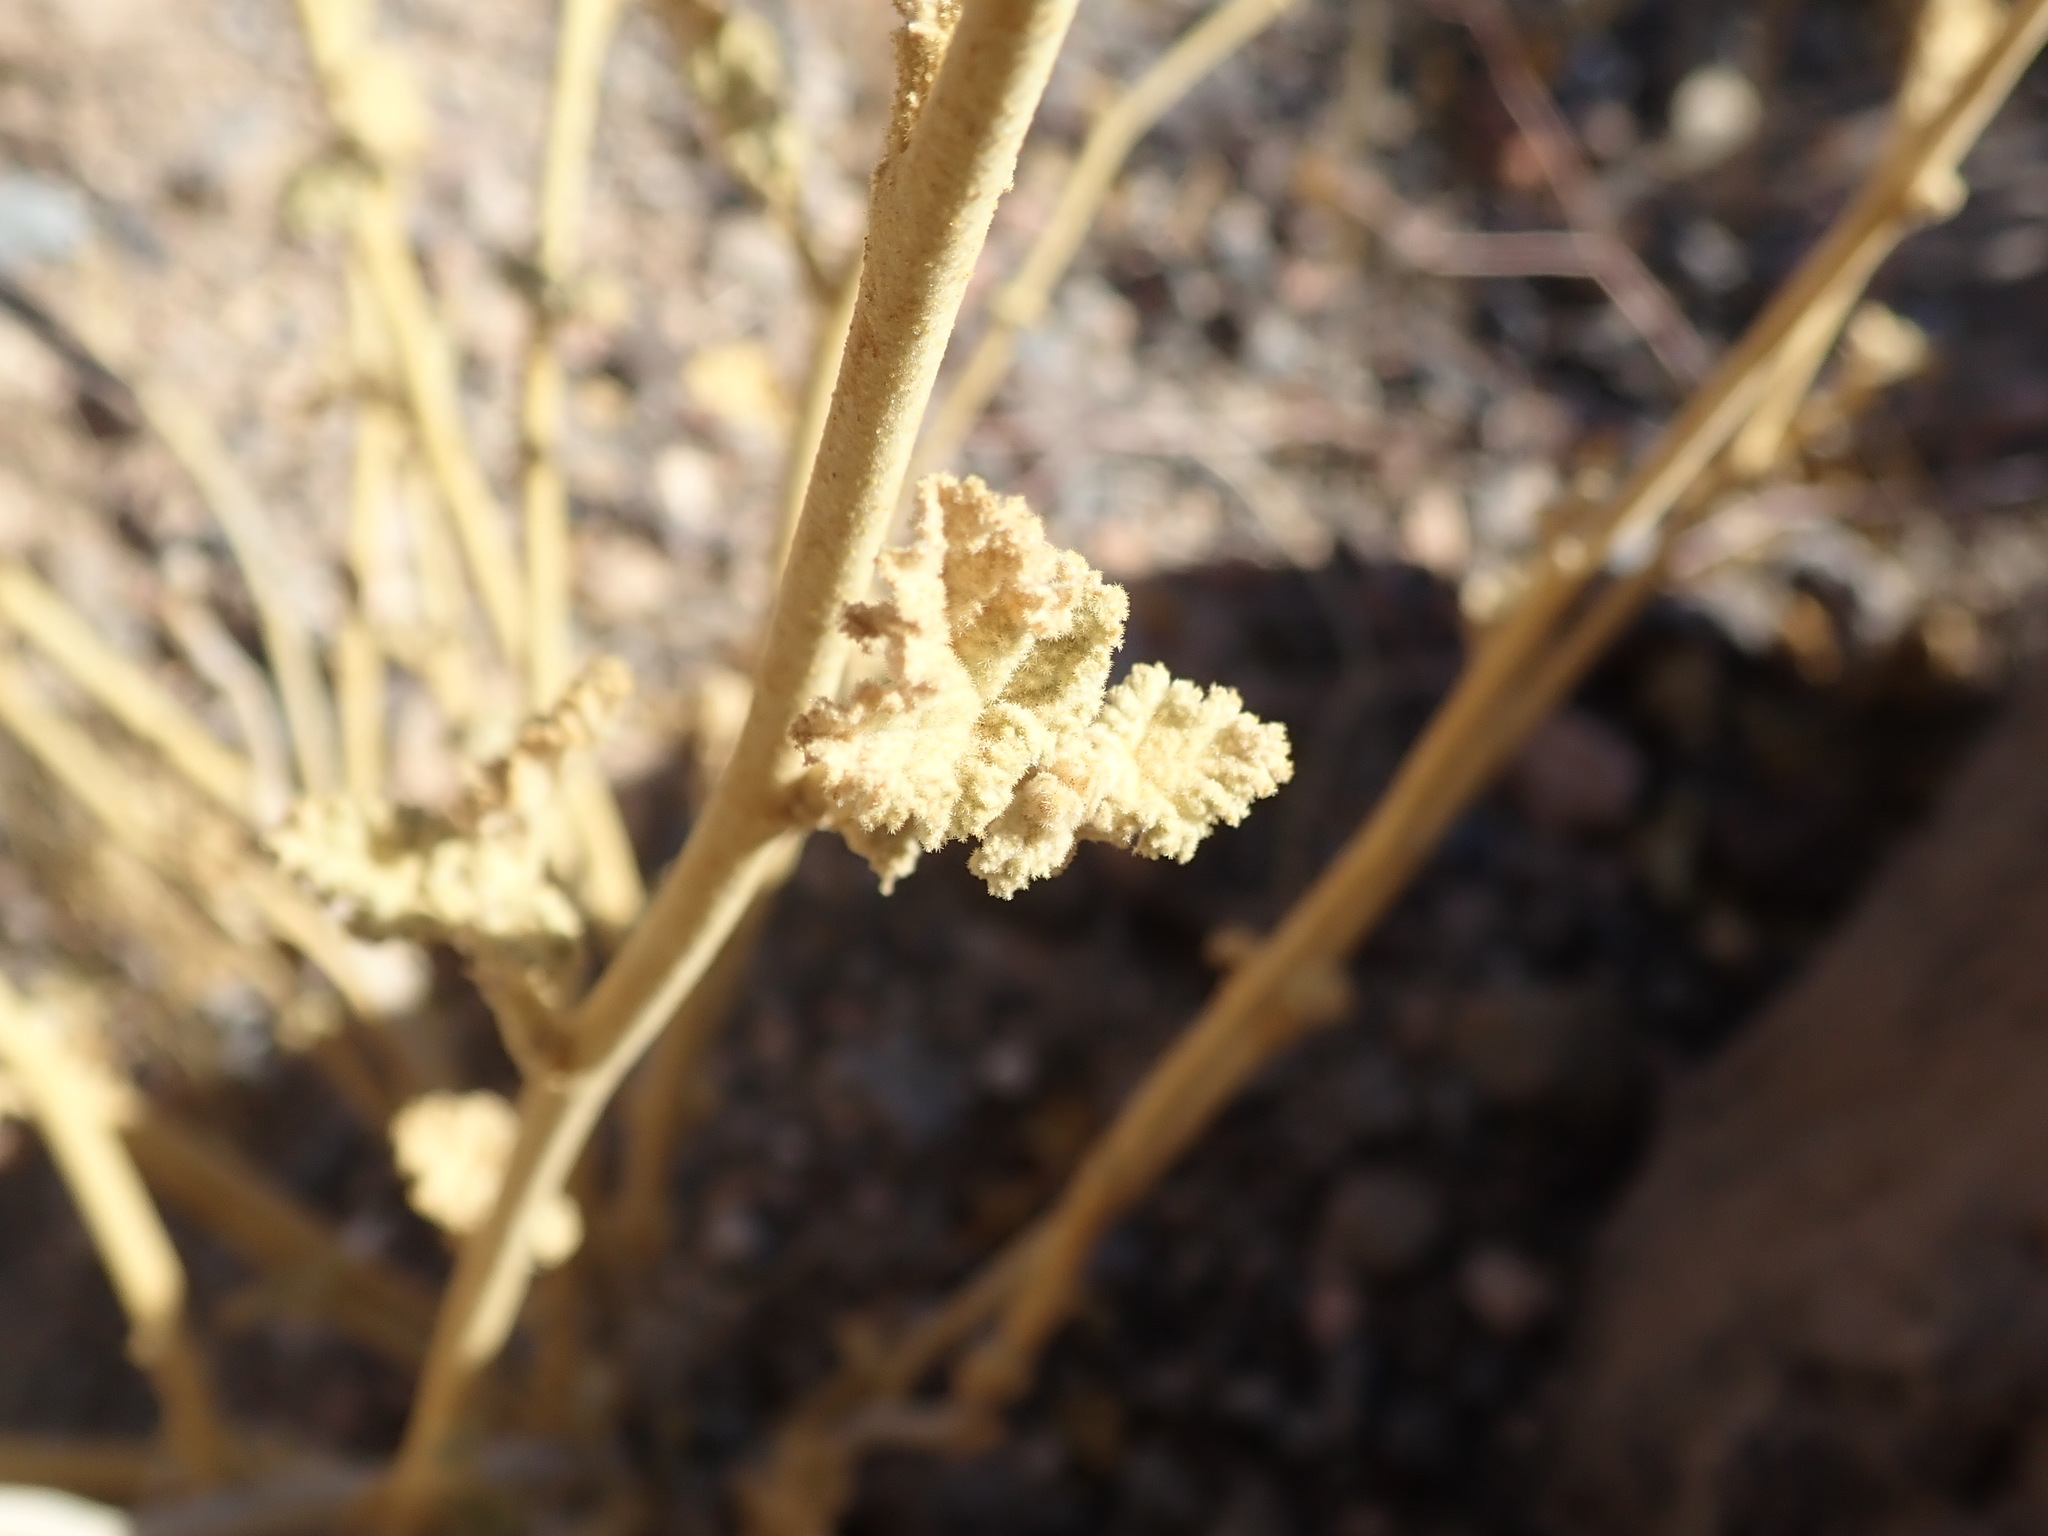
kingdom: Plantae
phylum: Tracheophyta
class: Magnoliopsida
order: Malvales
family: Malvaceae
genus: Sphaeralcea
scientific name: Sphaeralcea ambigua
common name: Apricot globe-mallow
